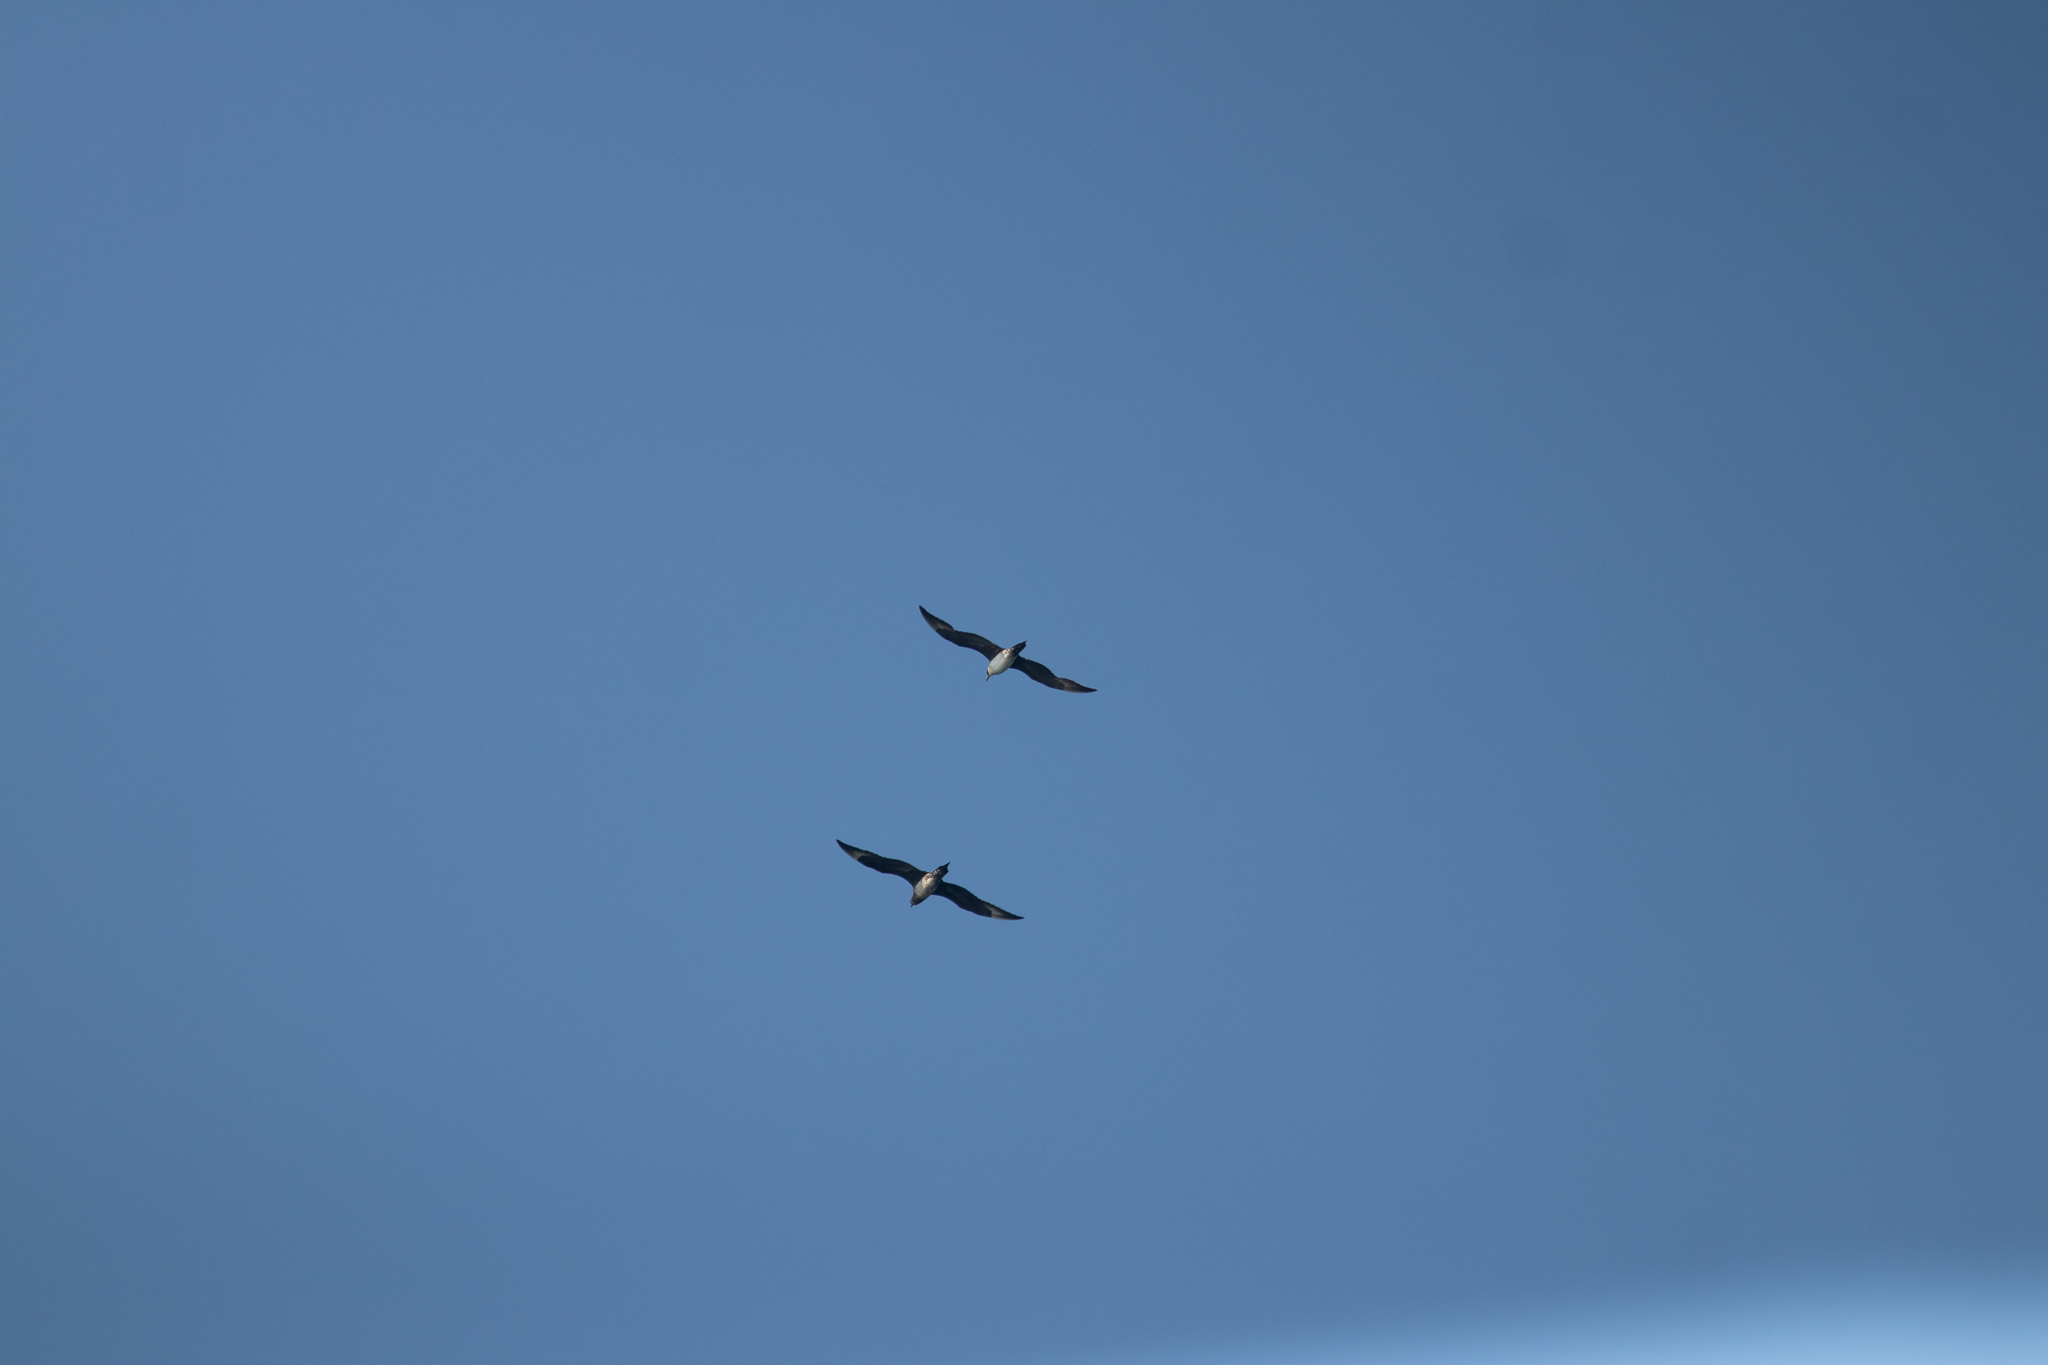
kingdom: Animalia
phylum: Chordata
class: Aves
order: Charadriiformes
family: Stercorariidae
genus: Stercorarius
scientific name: Stercorarius parasiticus
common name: Parasitic jaeger
